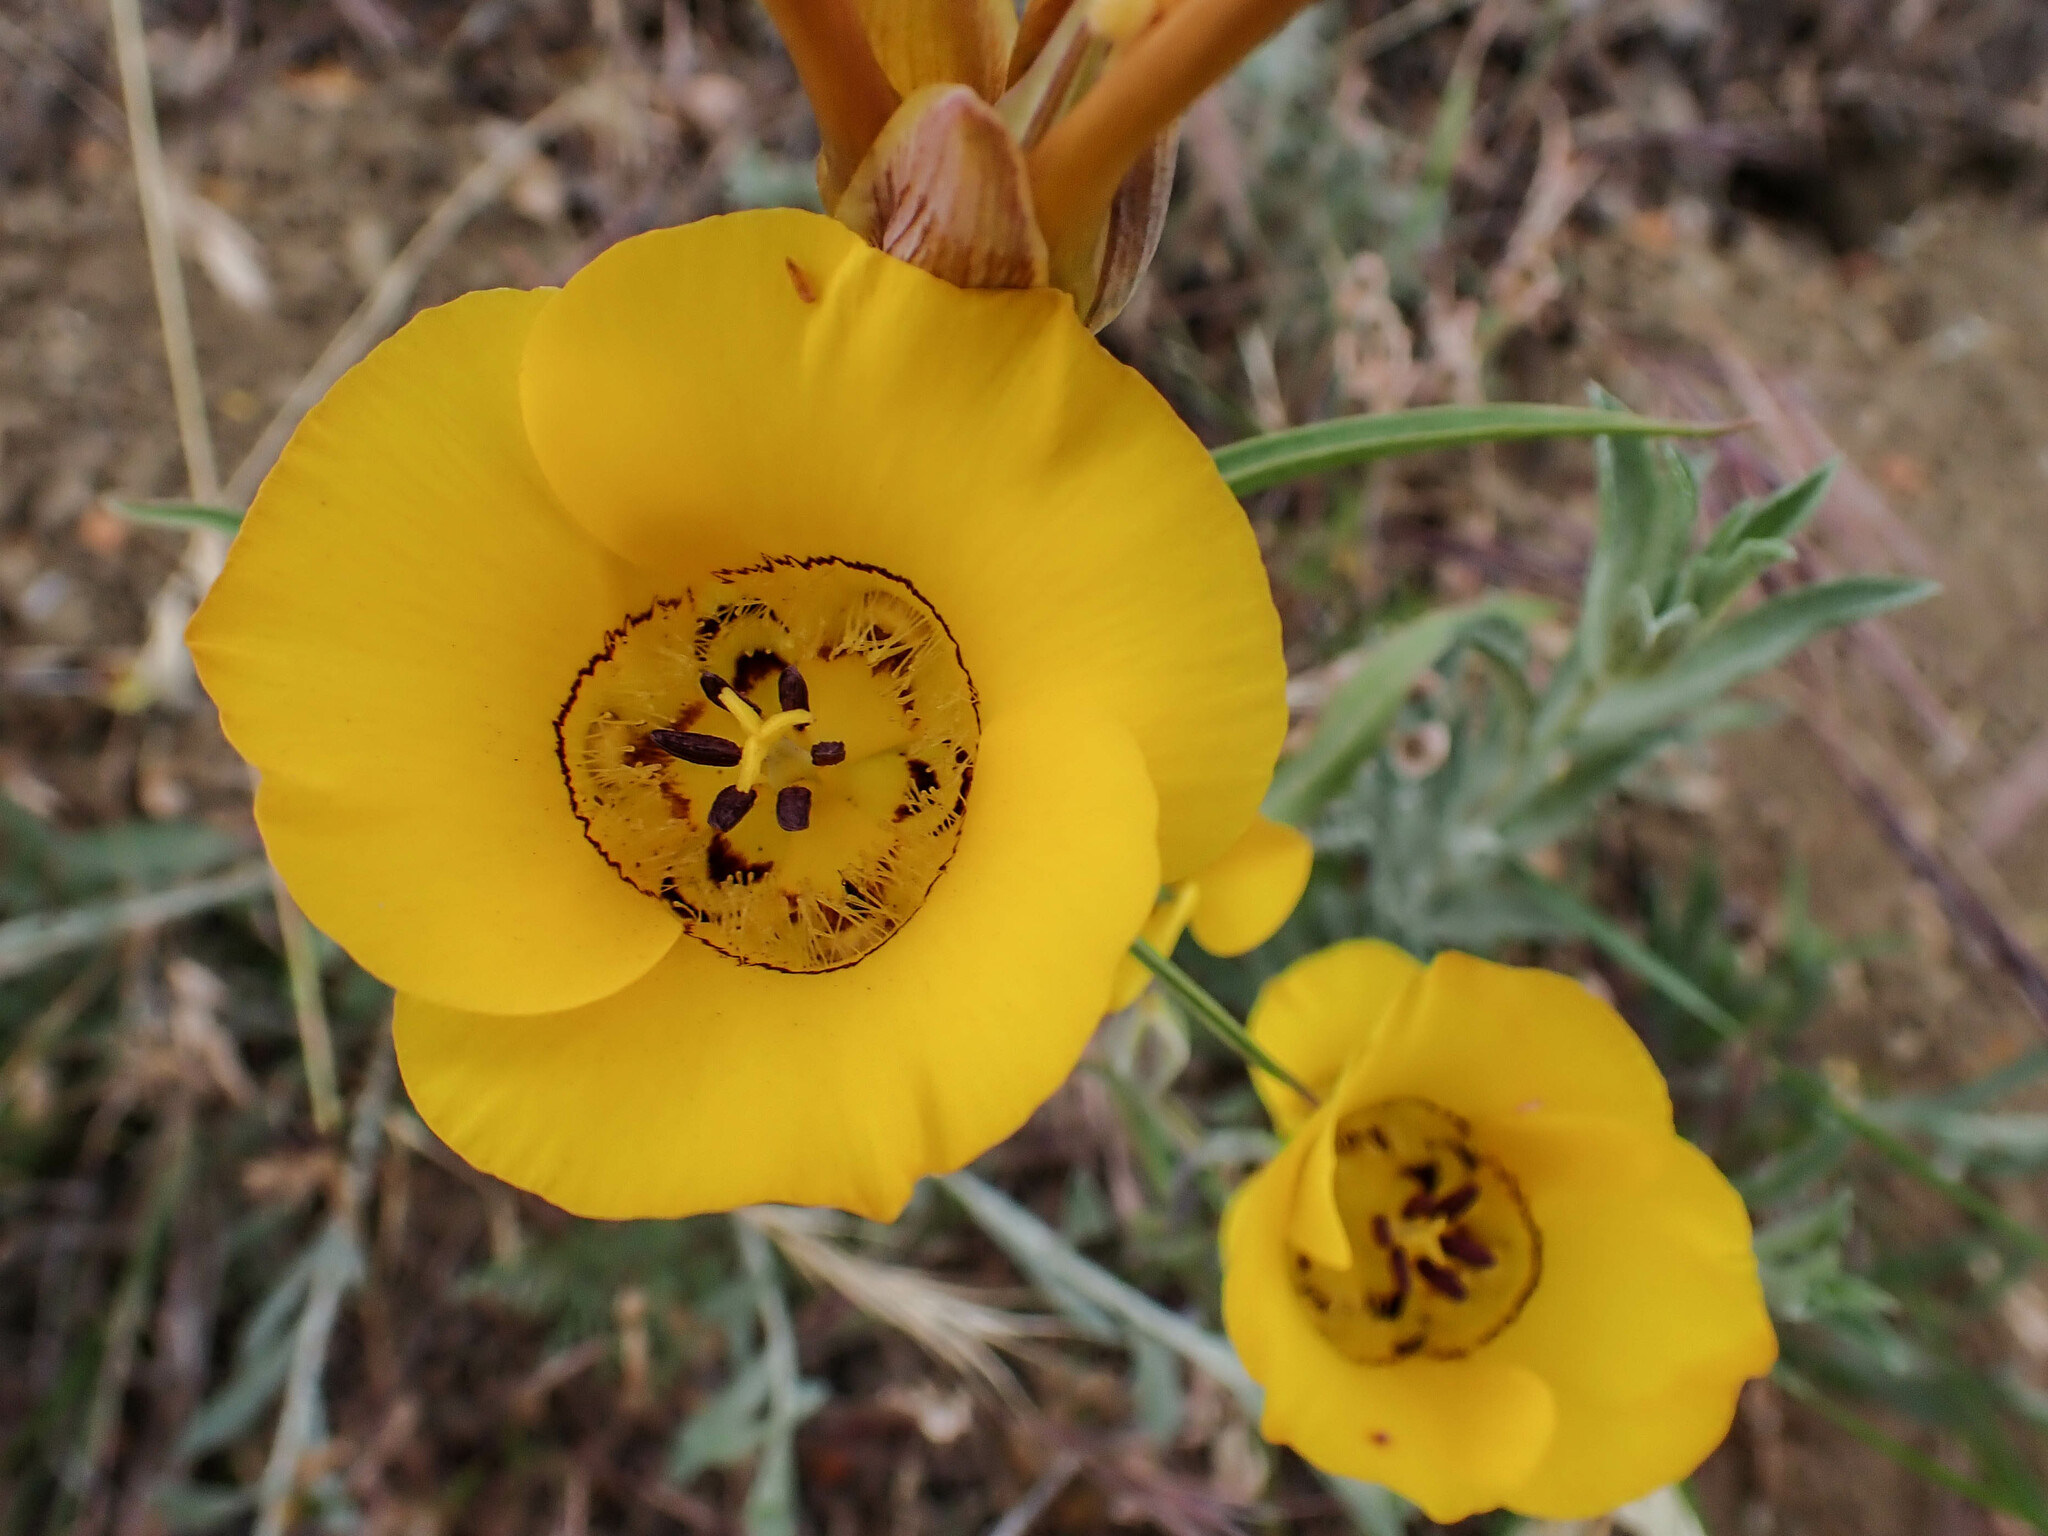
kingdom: Plantae
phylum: Tracheophyta
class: Liliopsida
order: Liliales
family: Liliaceae
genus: Calochortus
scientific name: Calochortus clavatus
